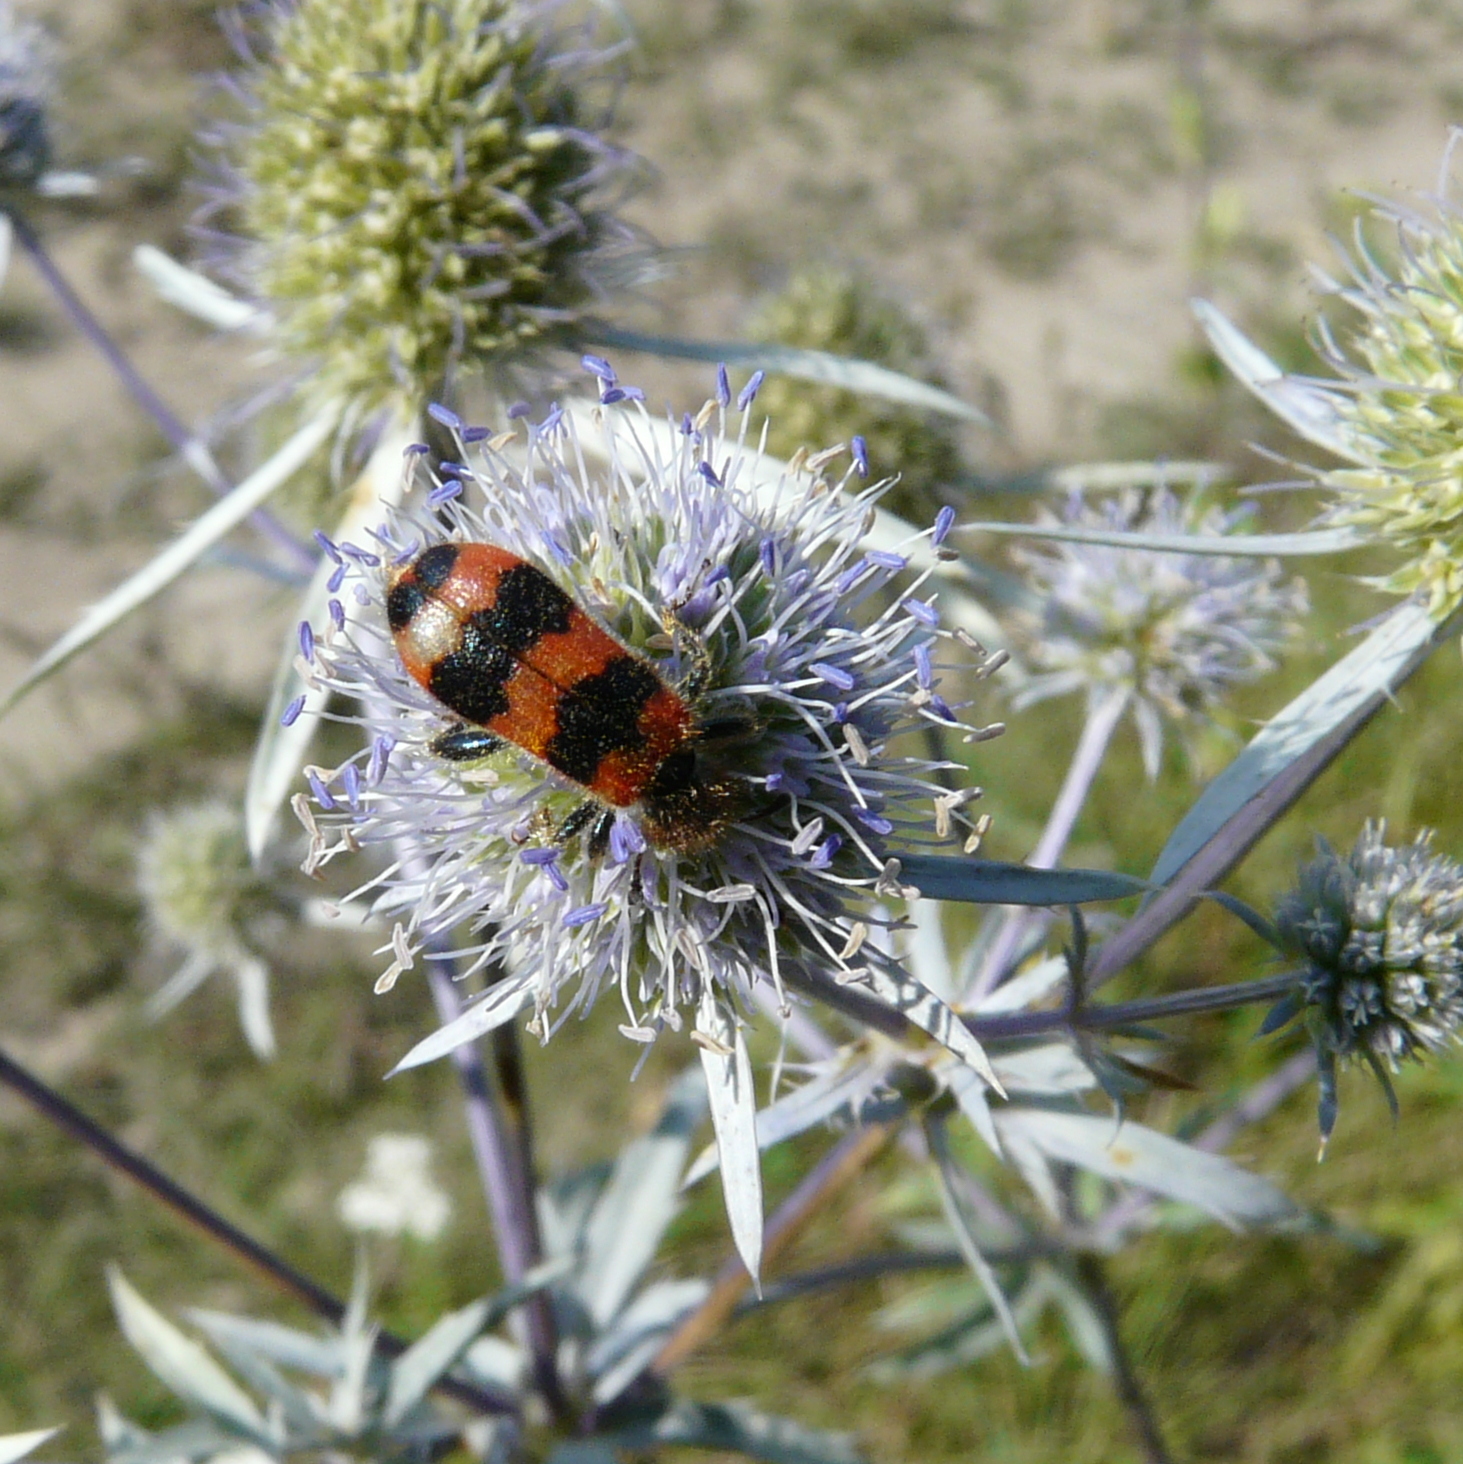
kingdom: Animalia
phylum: Arthropoda
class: Insecta
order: Coleoptera
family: Cleridae
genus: Trichodes
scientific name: Trichodes apiarius
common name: Bee-eating beetle
